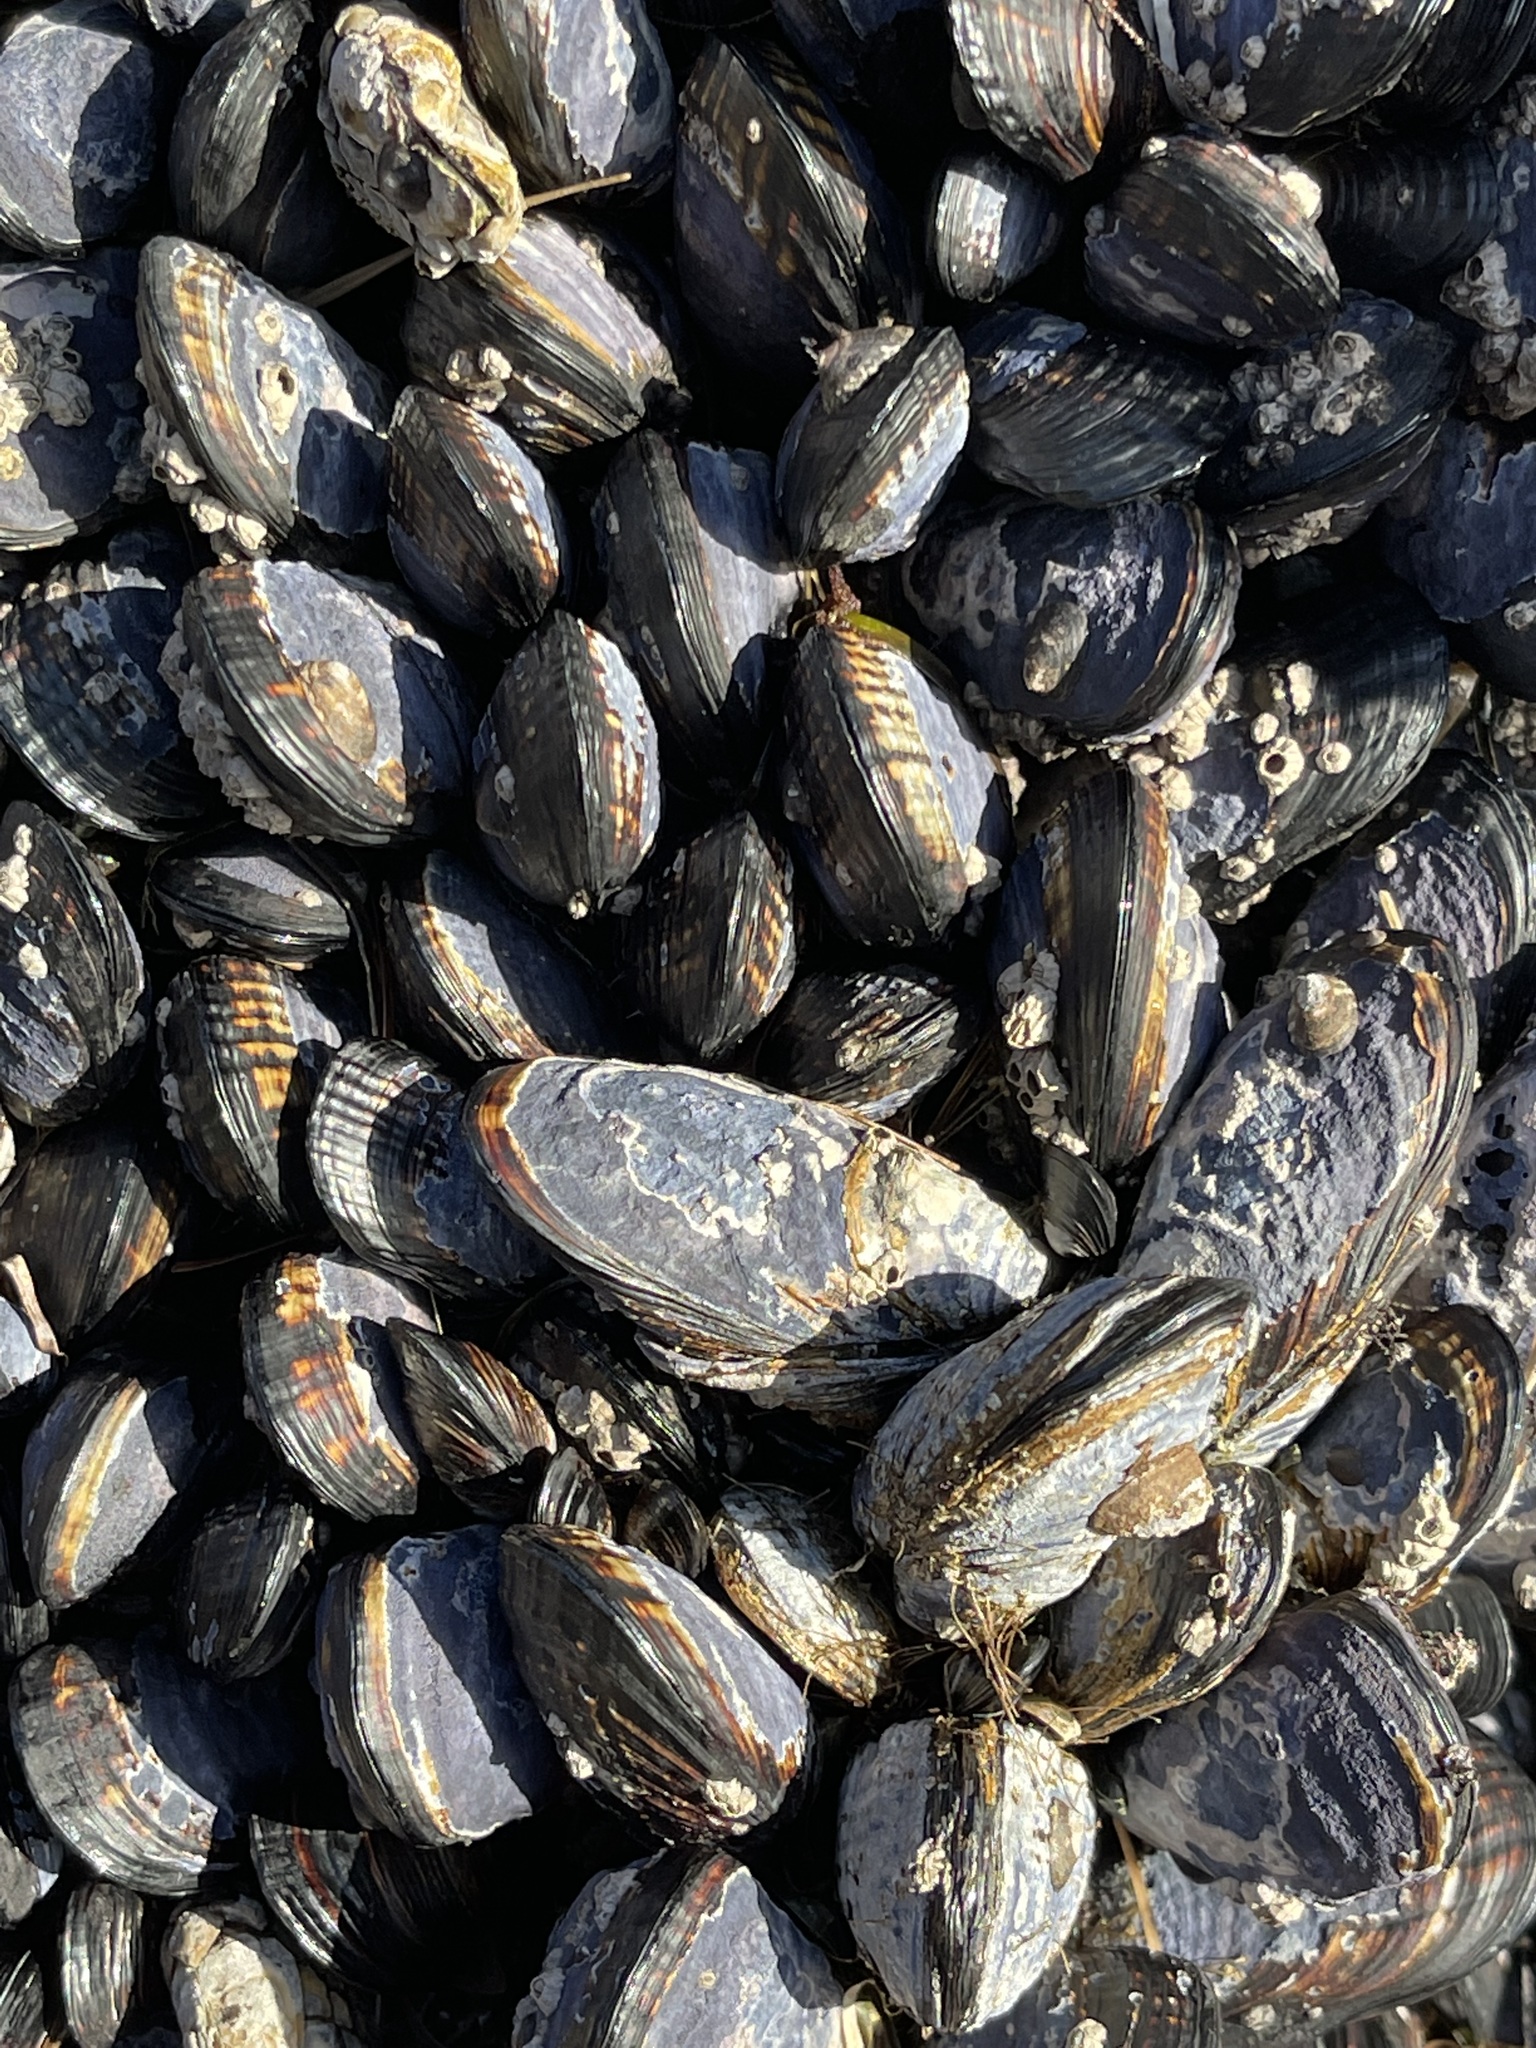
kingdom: Animalia
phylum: Mollusca
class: Bivalvia
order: Mytilida
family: Mytilidae
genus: Mytilus
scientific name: Mytilus californianus
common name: California mussel
